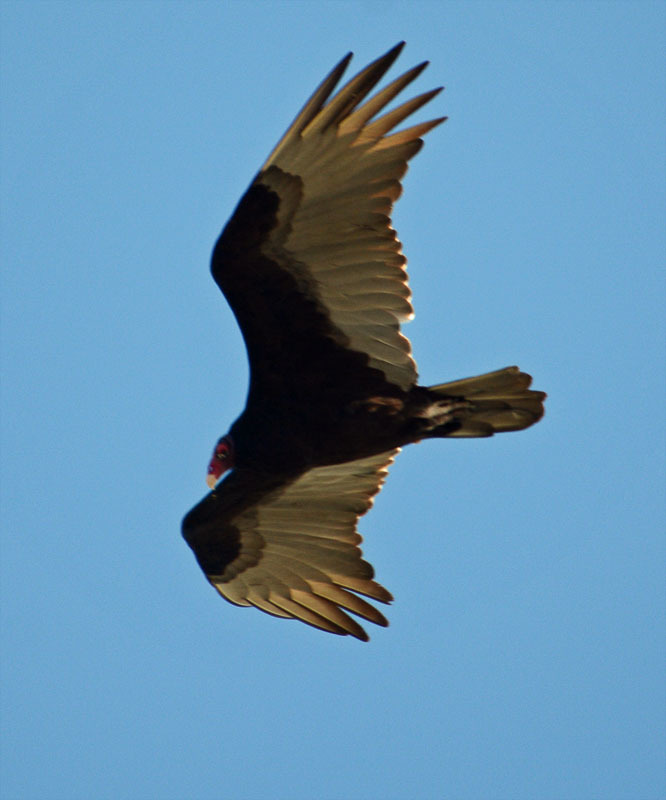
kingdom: Animalia
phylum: Chordata
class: Aves
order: Accipitriformes
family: Cathartidae
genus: Cathartes
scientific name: Cathartes aura
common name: Turkey vulture
